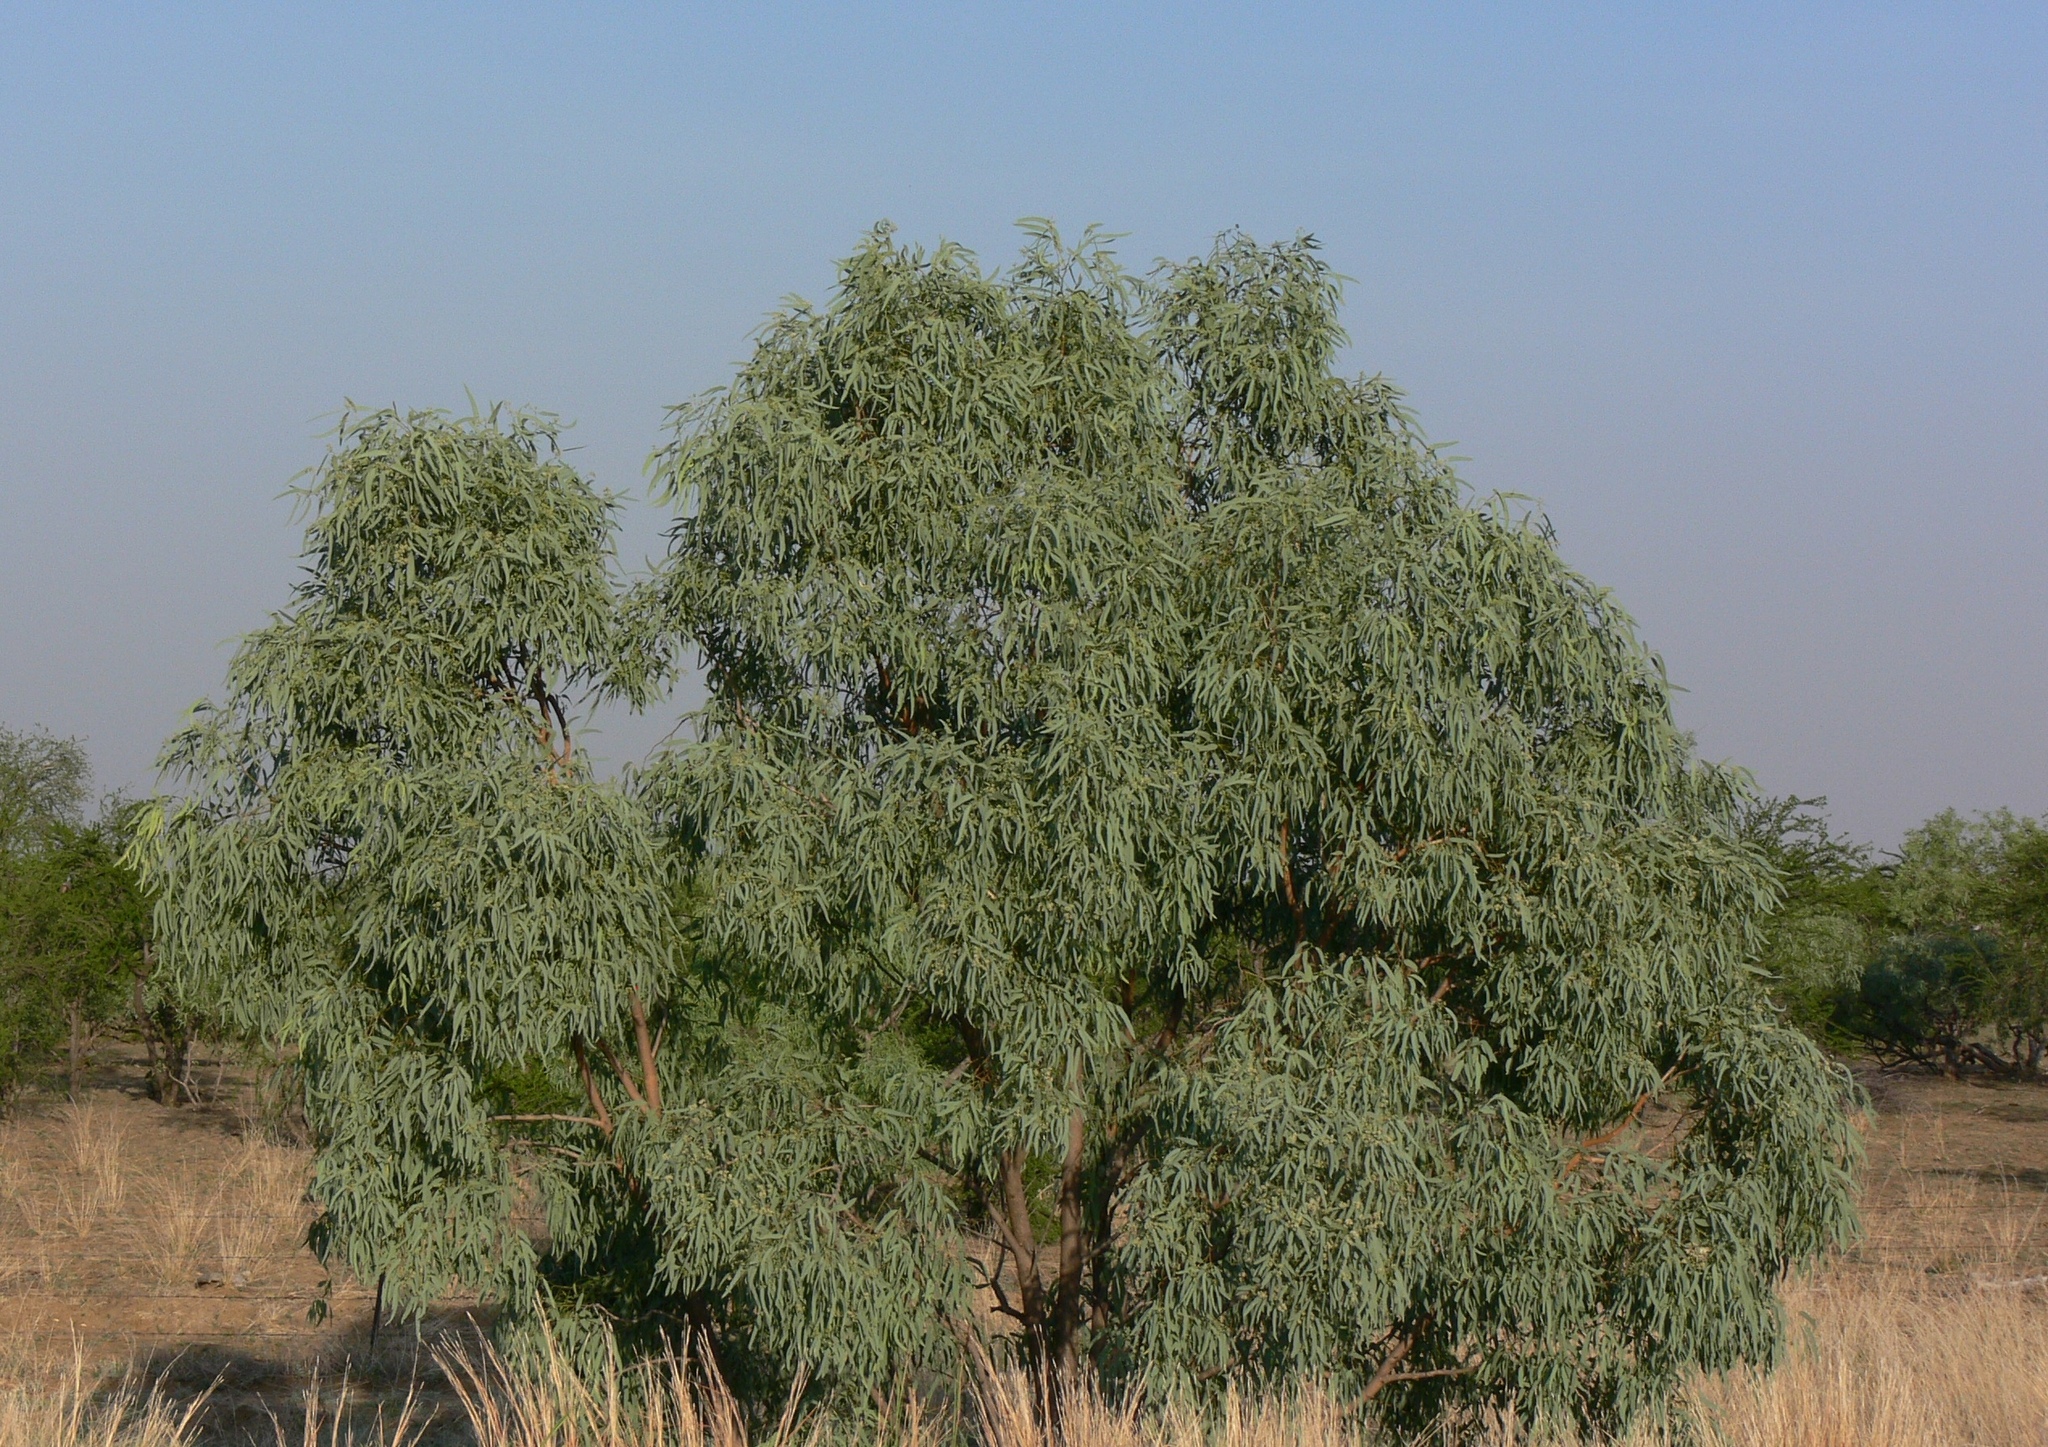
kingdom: Plantae
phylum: Tracheophyta
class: Magnoliopsida
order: Myrtales
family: Myrtaceae
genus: Eucalyptus
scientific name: Eucalyptus microtheca
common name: Coolibah
